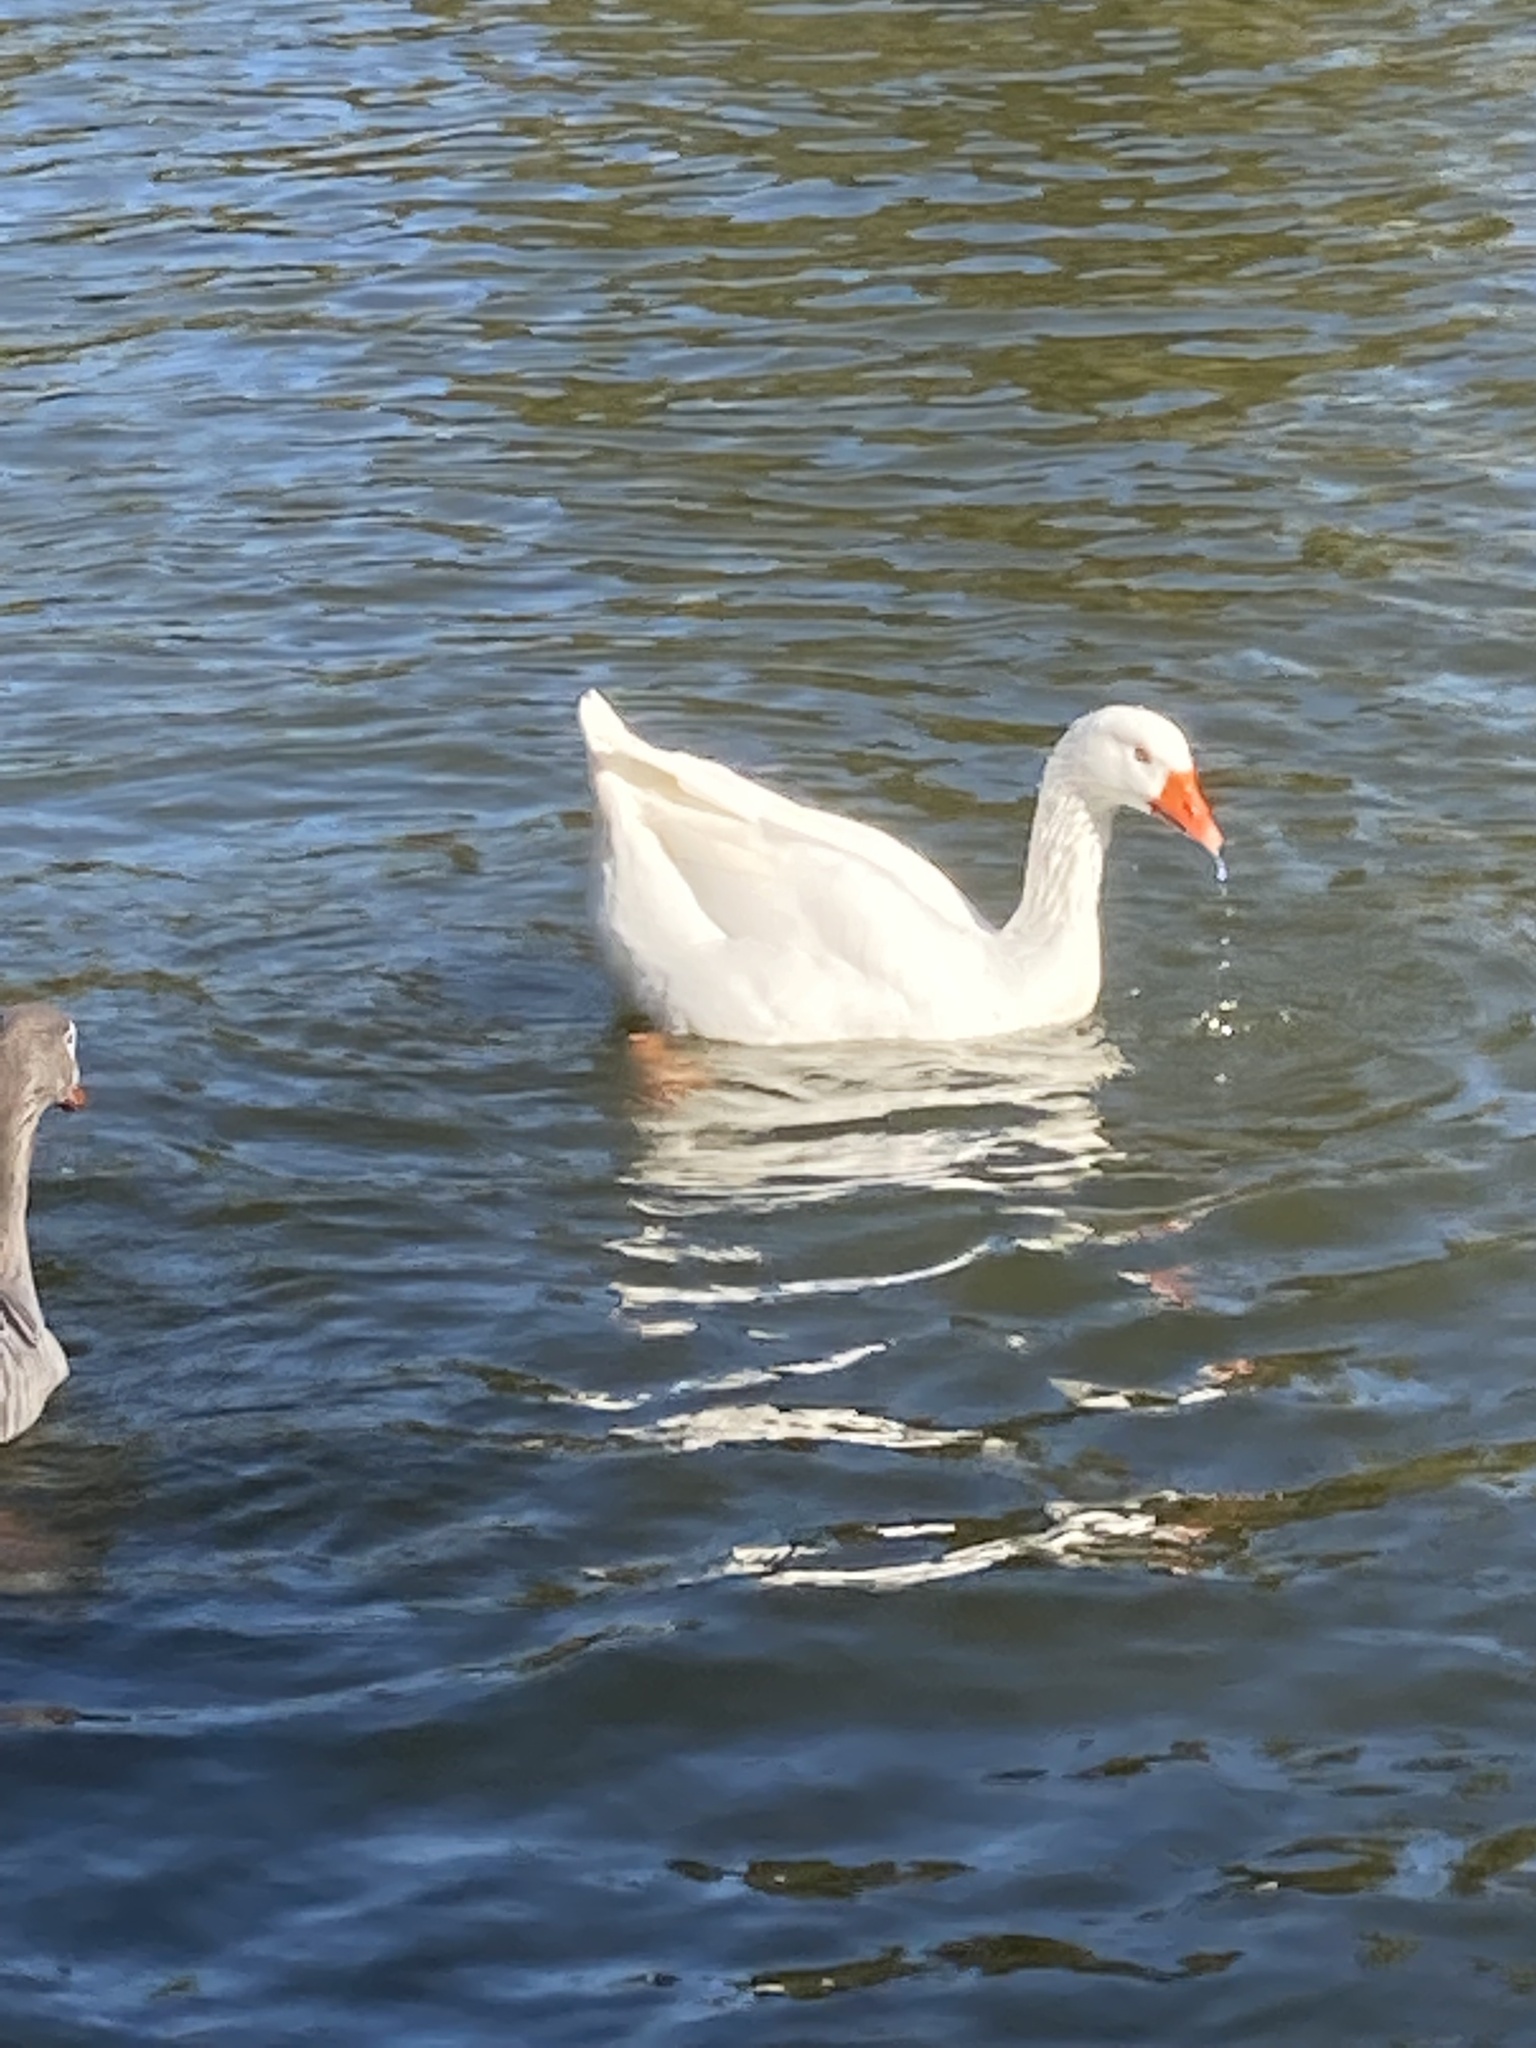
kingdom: Animalia
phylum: Chordata
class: Aves
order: Anseriformes
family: Anatidae
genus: Anser
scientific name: Anser anser
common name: Greylag goose
